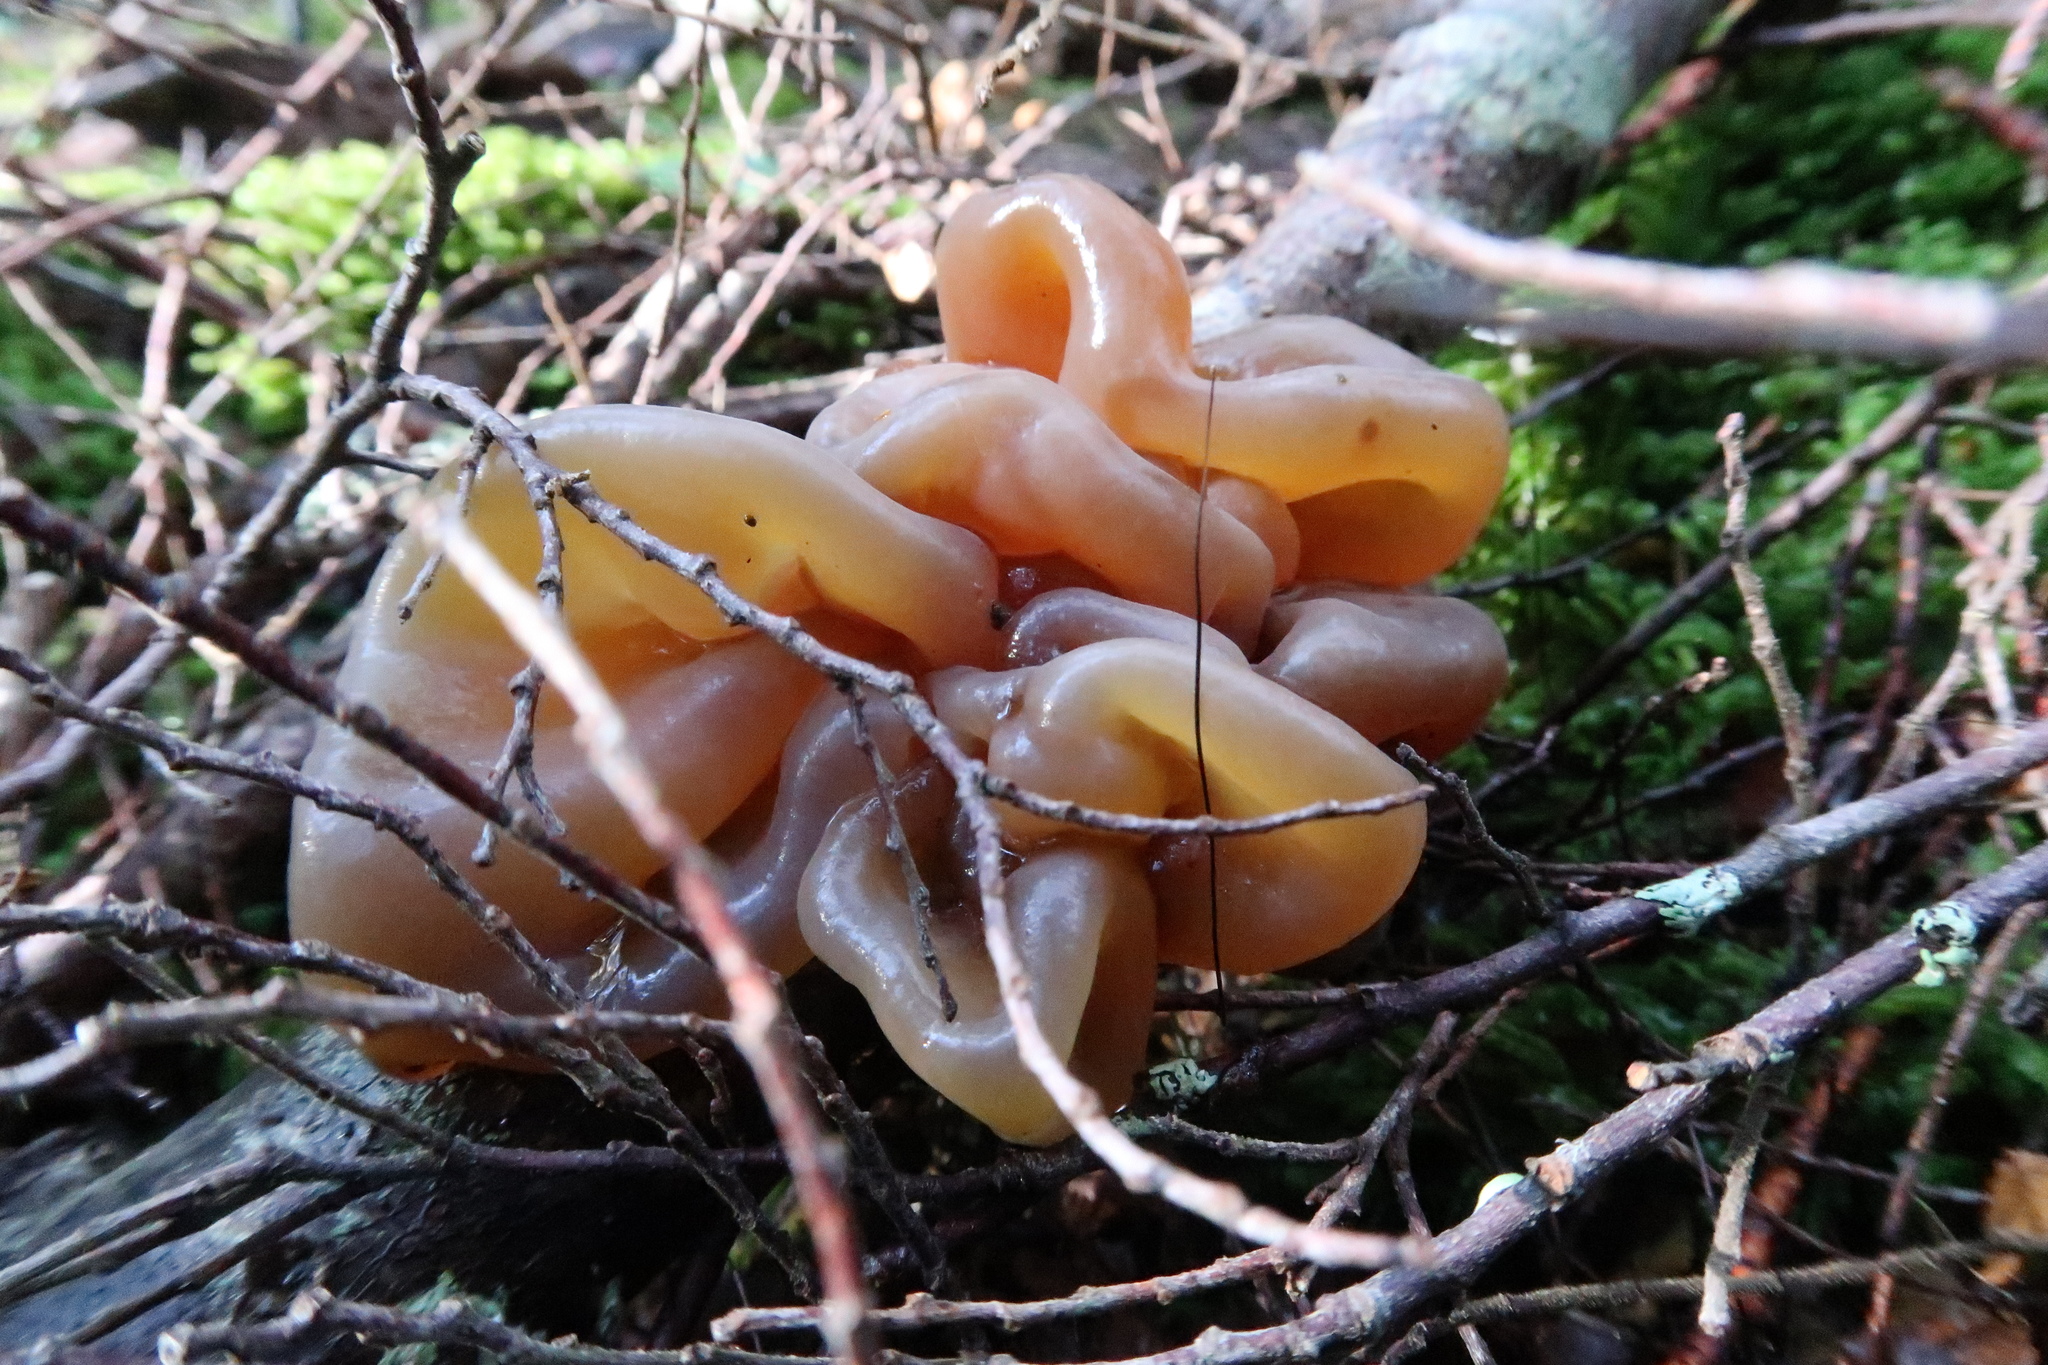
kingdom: Fungi
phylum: Basidiomycota
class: Tremellomycetes
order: Tremellales
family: Tremellaceae
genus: Phaeotremella
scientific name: Phaeotremella fimbriata
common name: Brown witch's butter
